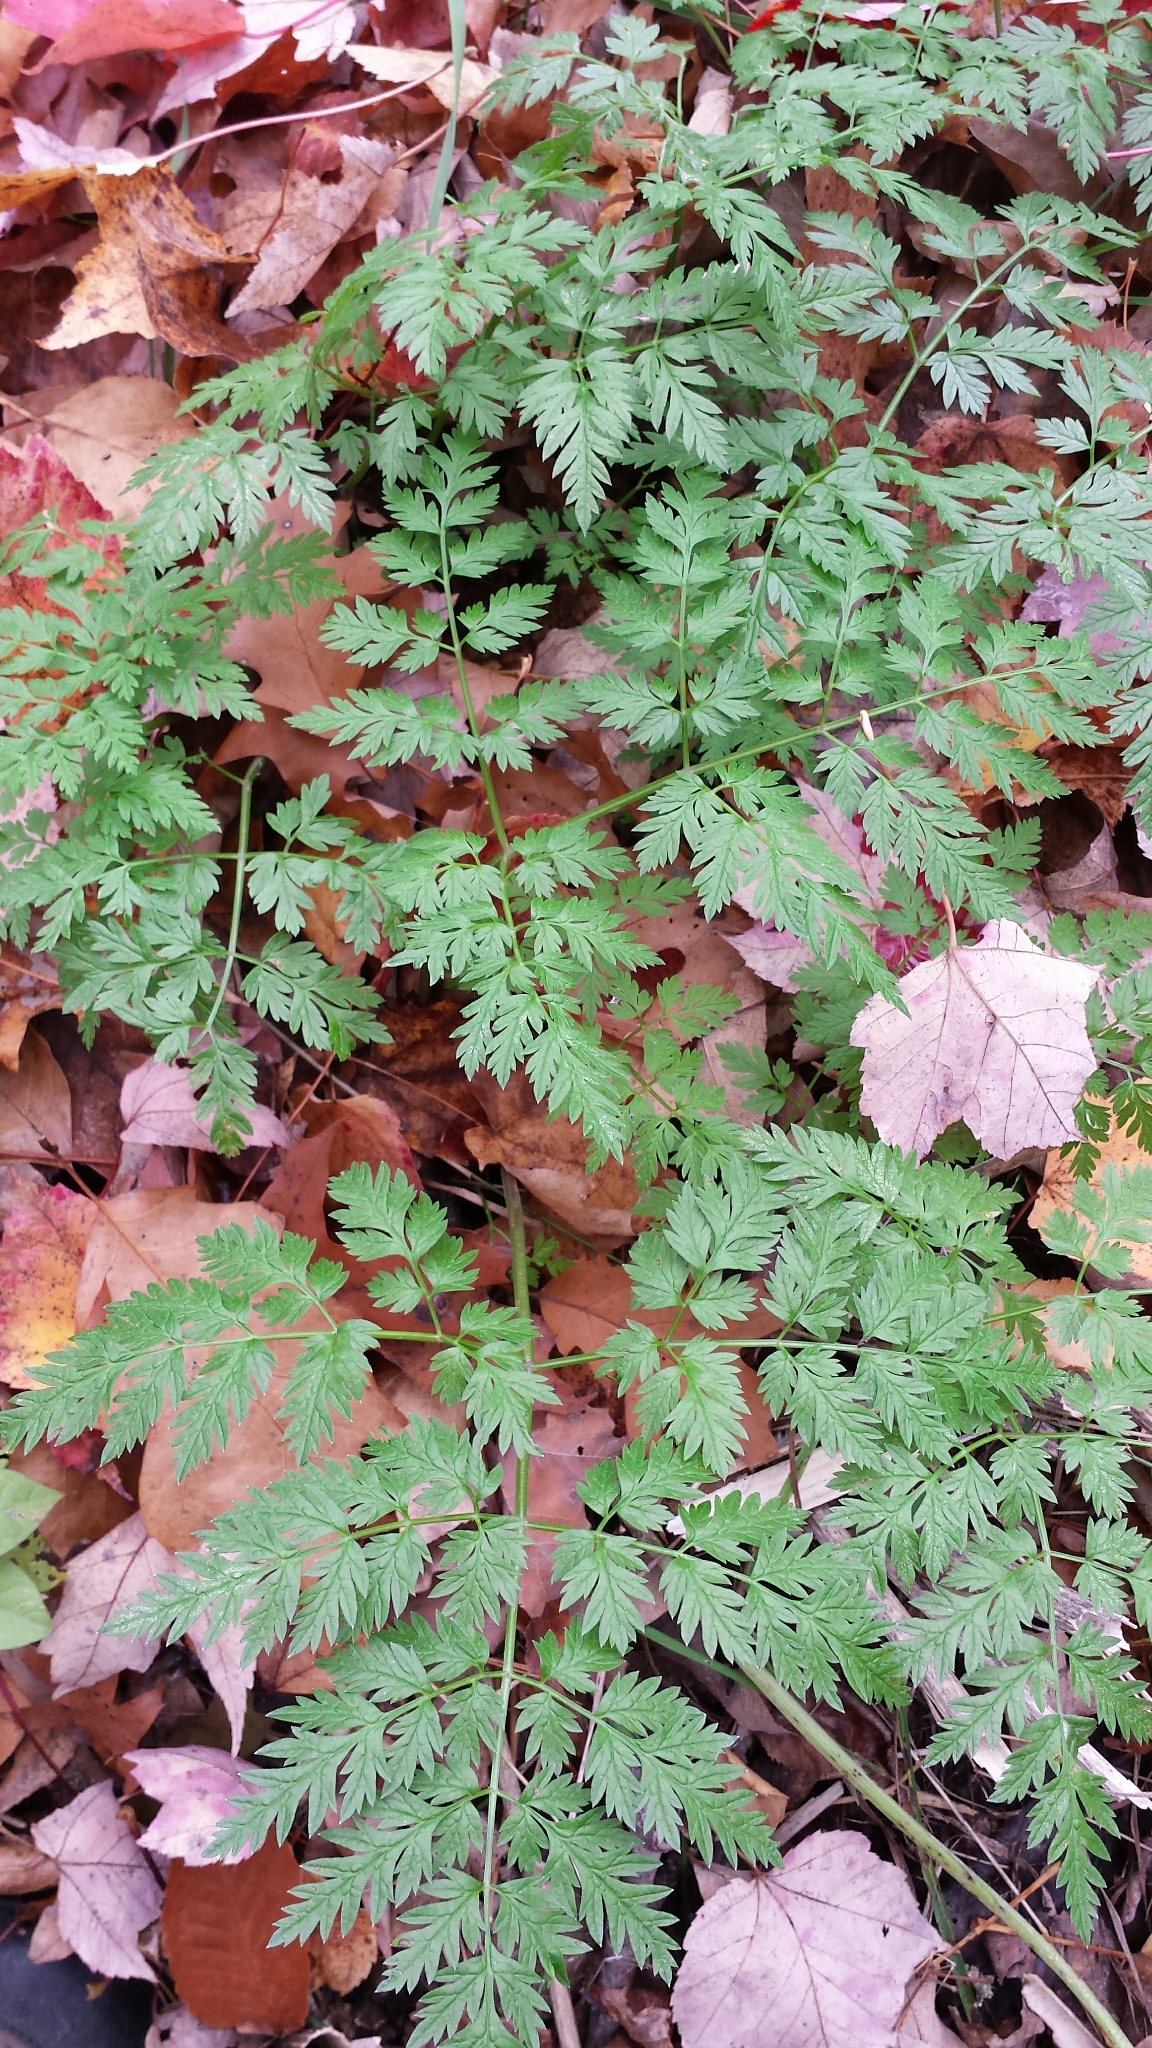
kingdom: Plantae
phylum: Tracheophyta
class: Magnoliopsida
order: Apiales
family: Apiaceae
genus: Anthriscus
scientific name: Anthriscus sylvestris
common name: Cow parsley
